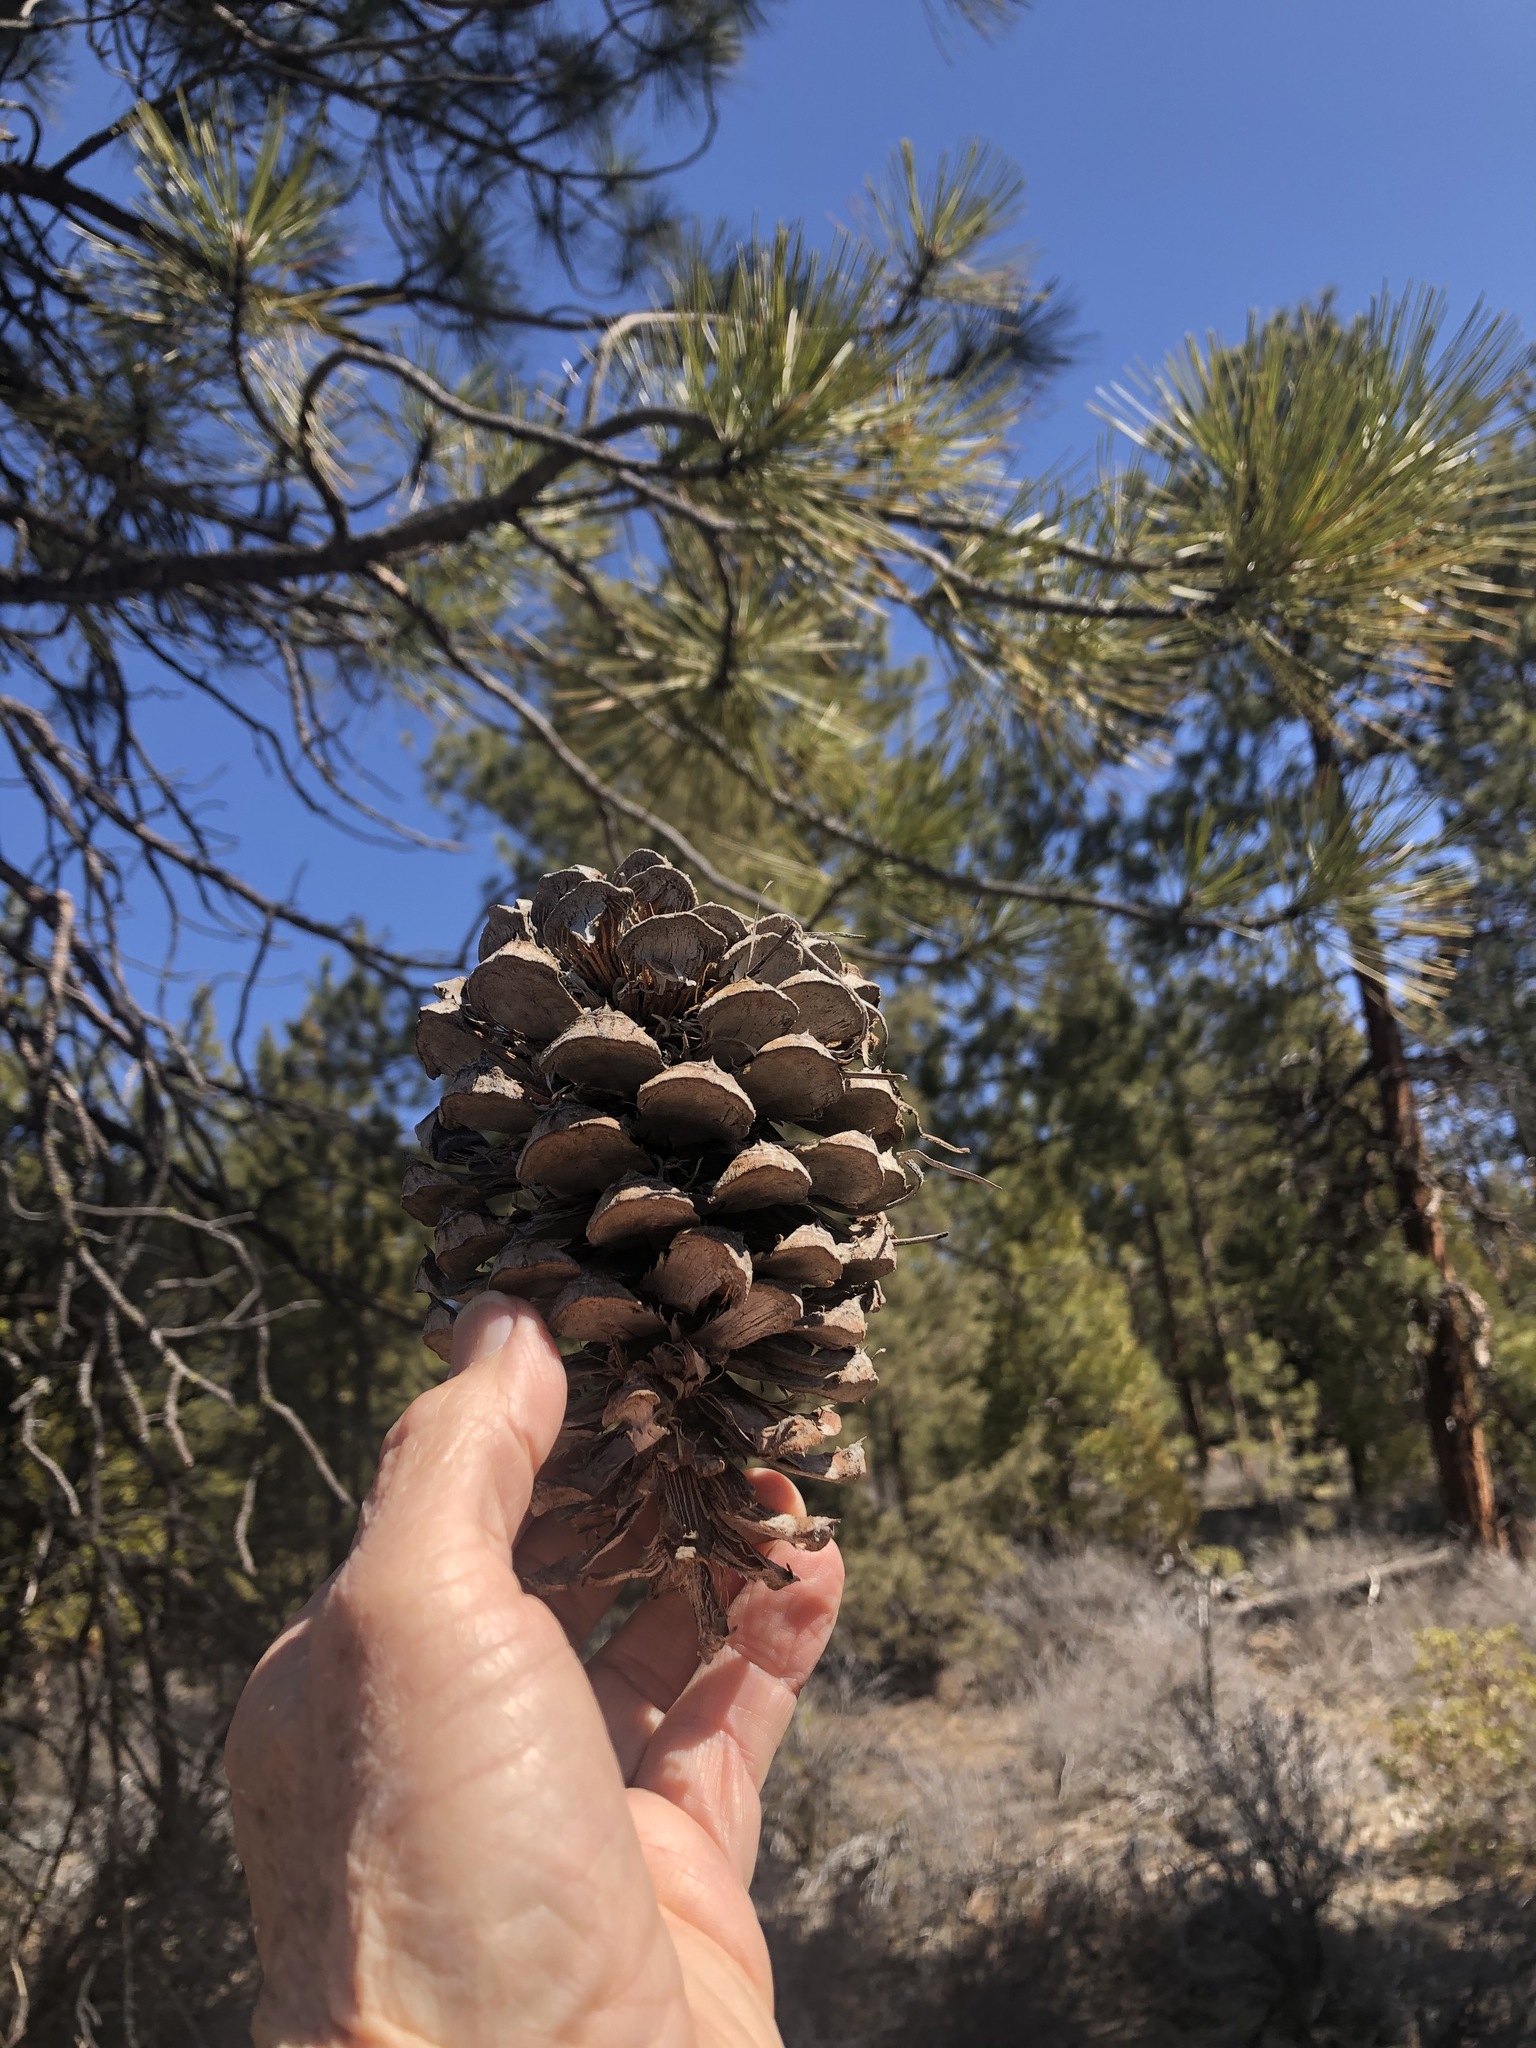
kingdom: Plantae
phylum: Tracheophyta
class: Pinopsida
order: Pinales
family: Pinaceae
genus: Pinus
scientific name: Pinus ponderosa
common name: Western yellow-pine
